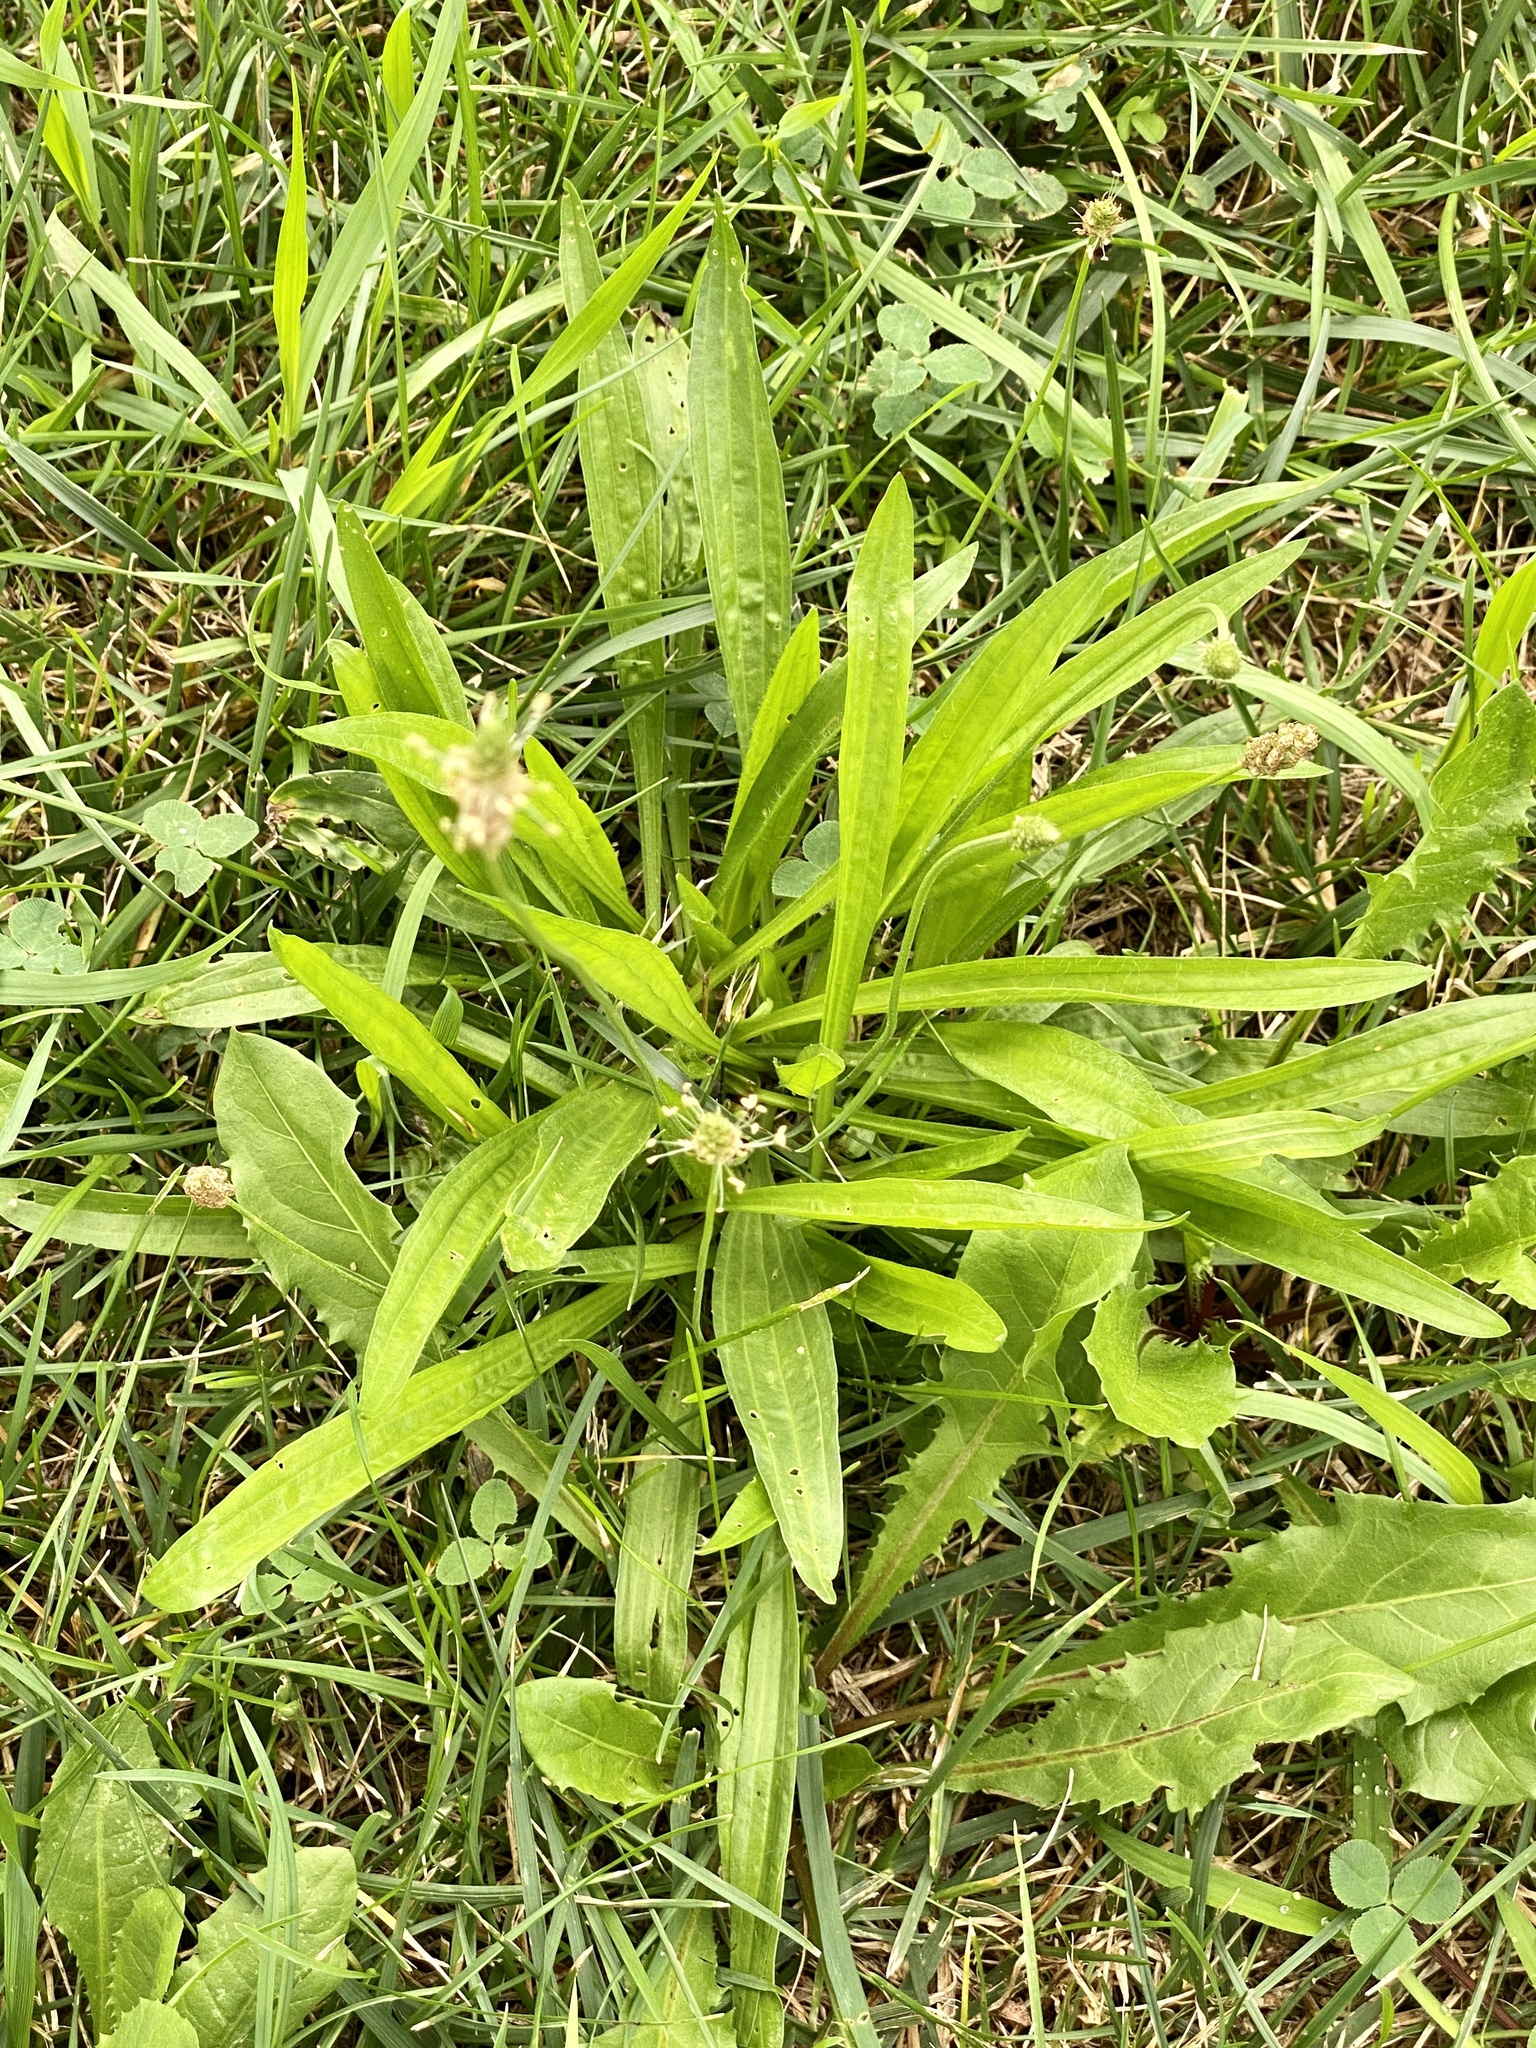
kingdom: Plantae
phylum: Tracheophyta
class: Magnoliopsida
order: Lamiales
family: Plantaginaceae
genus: Plantago
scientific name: Plantago lanceolata
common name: Ribwort plantain
